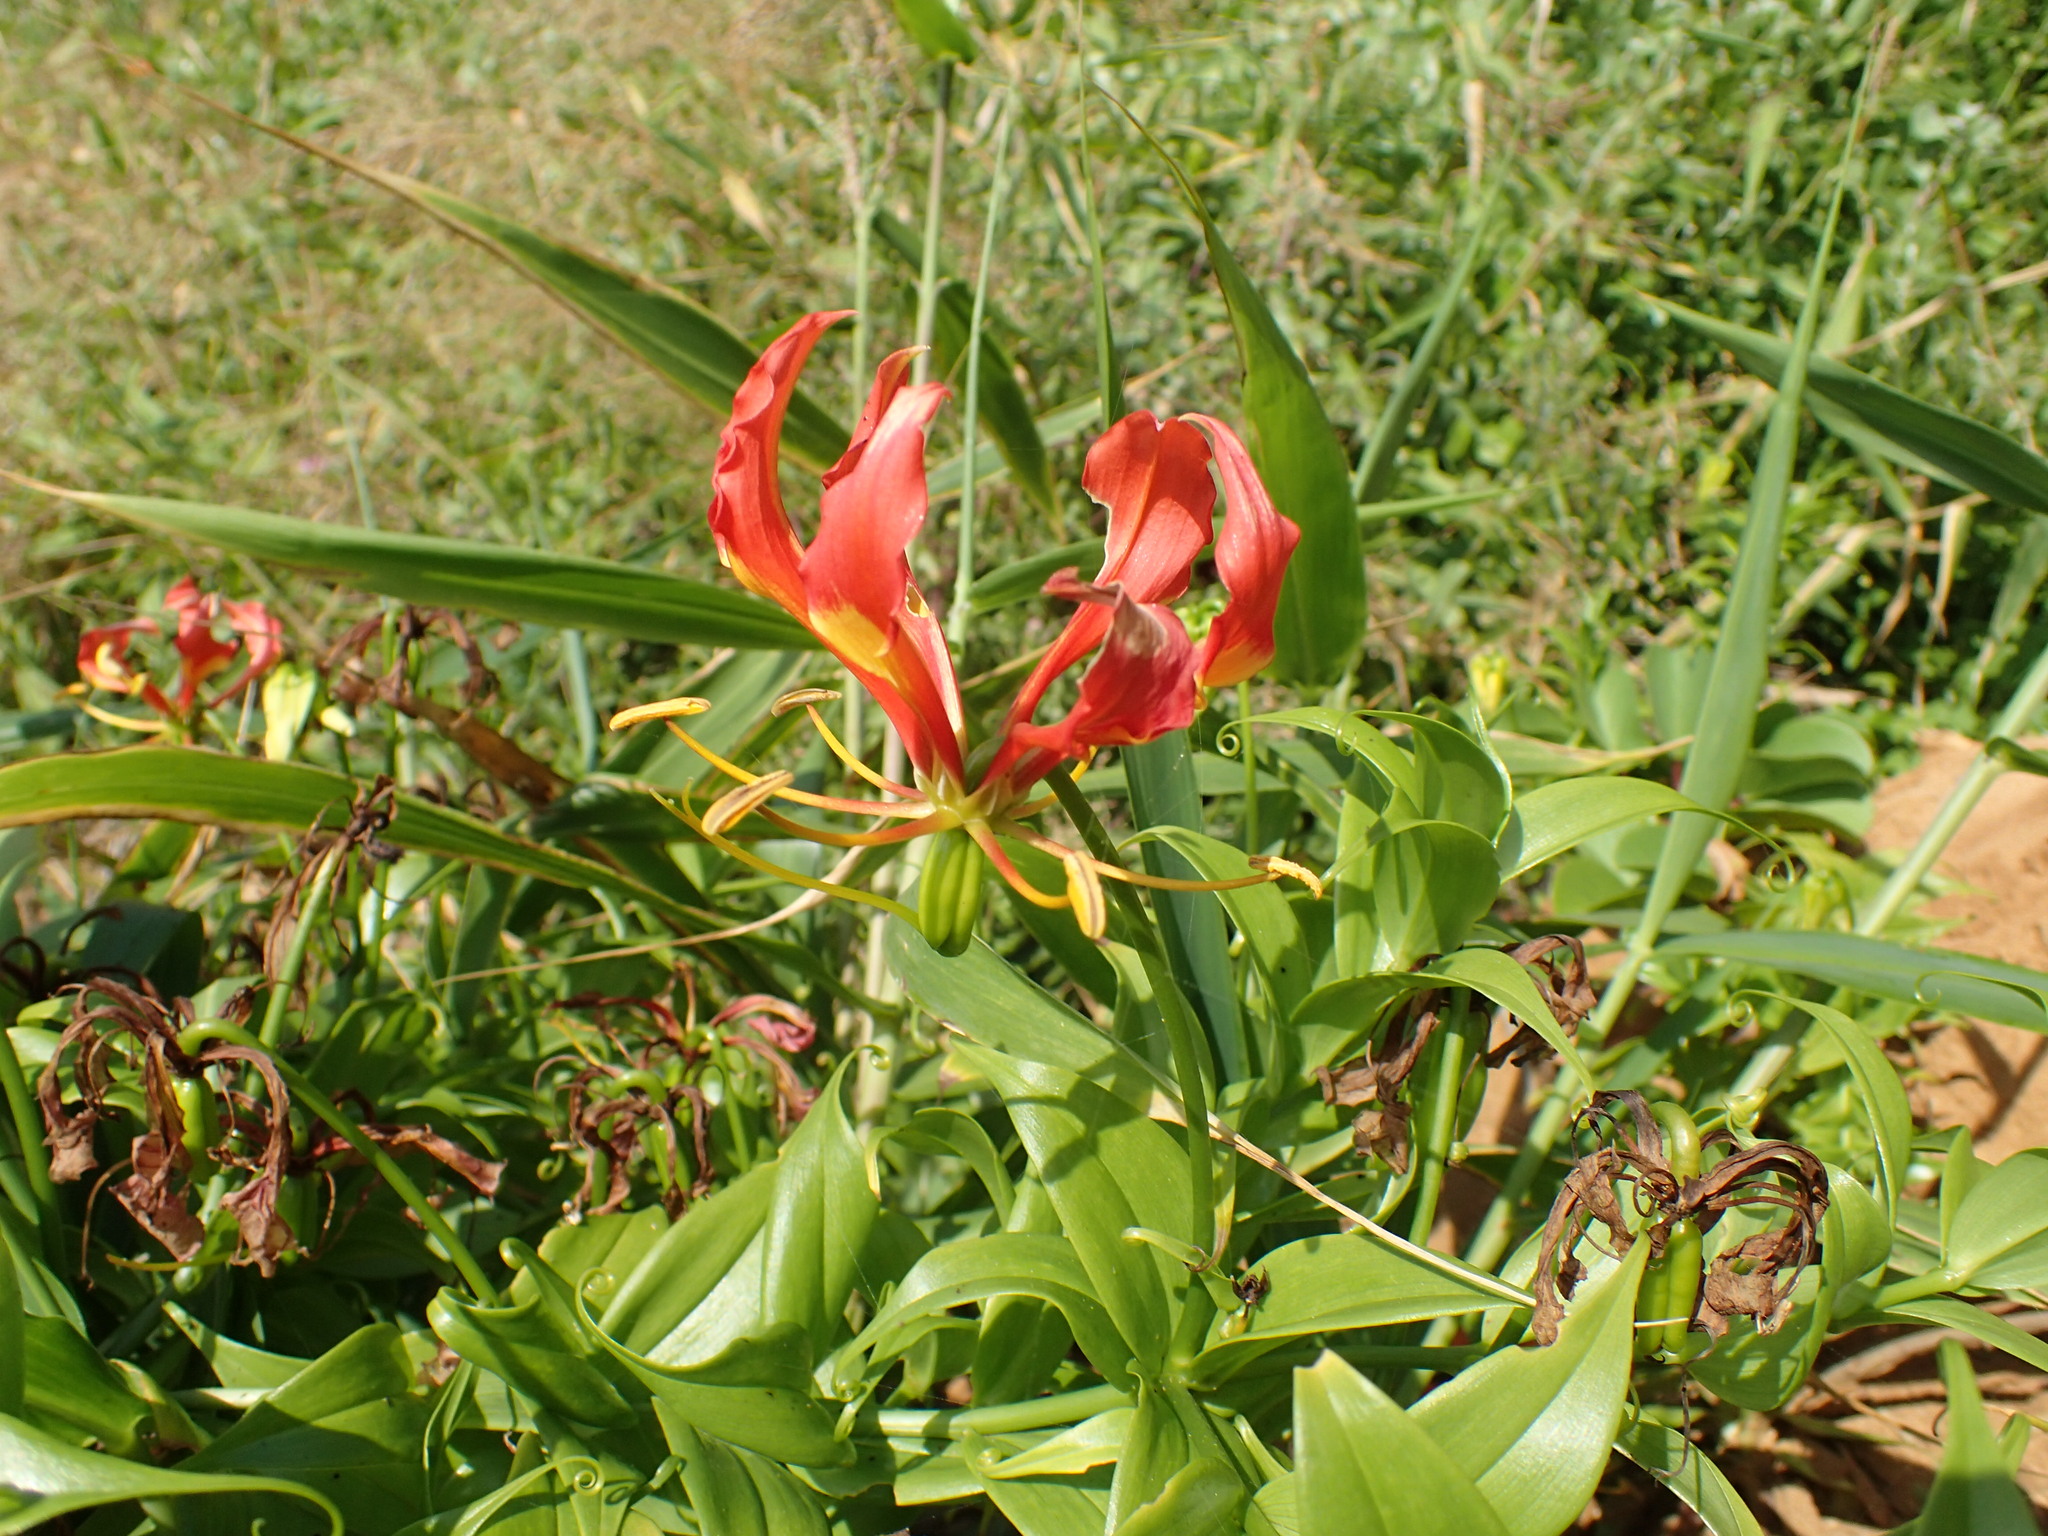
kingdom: Plantae
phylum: Tracheophyta
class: Liliopsida
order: Liliales
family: Colchicaceae
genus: Gloriosa
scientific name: Gloriosa superba
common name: Flame lily
